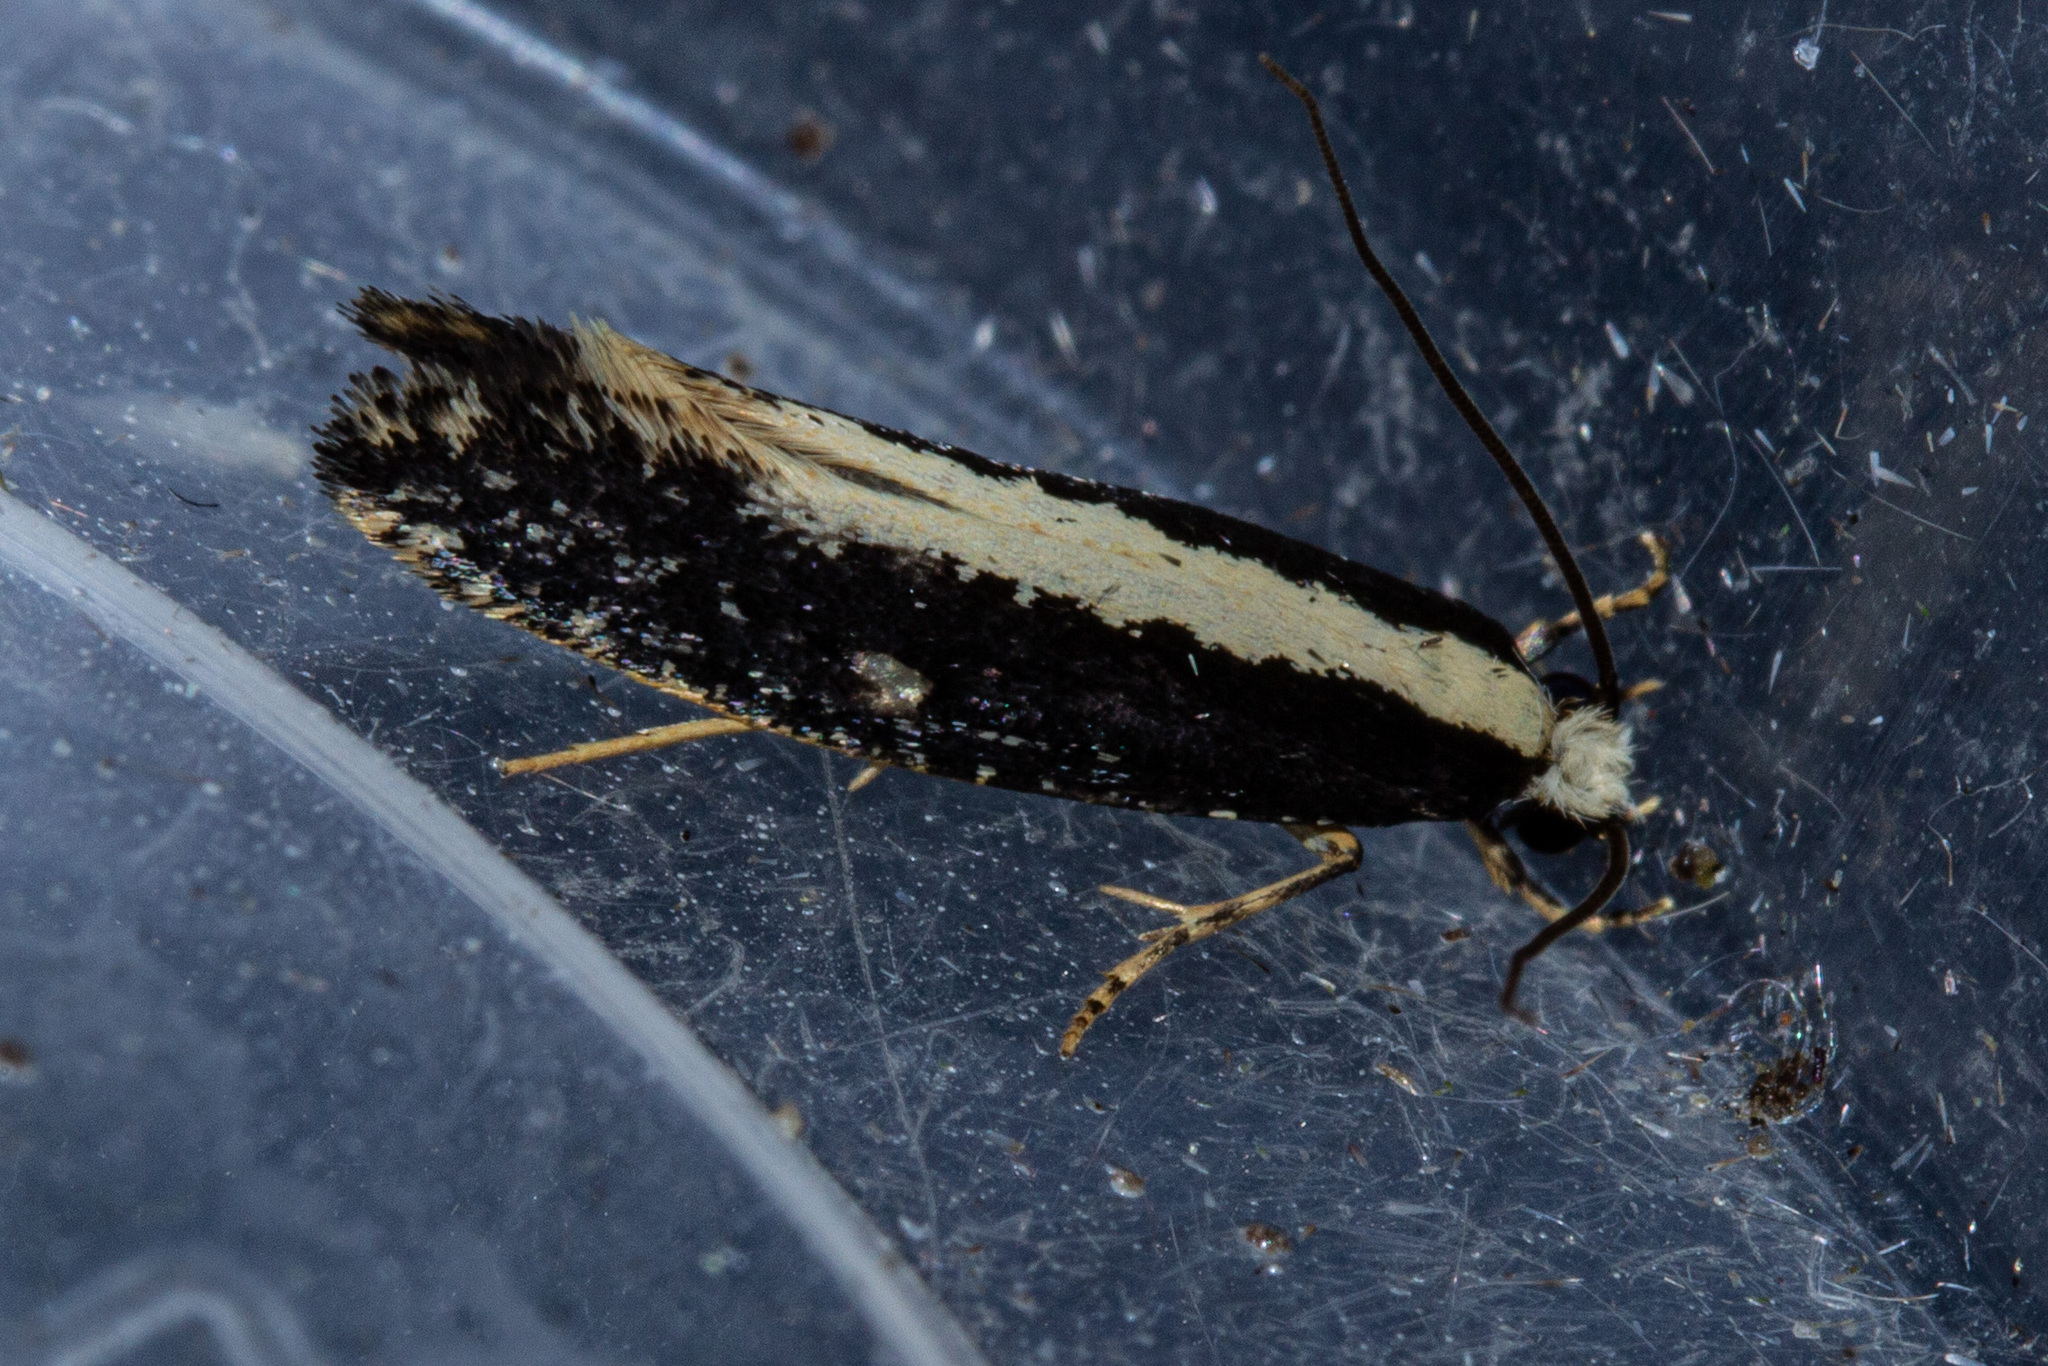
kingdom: Animalia
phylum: Arthropoda
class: Insecta
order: Lepidoptera
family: Tineidae
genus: Monopis
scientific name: Monopis ethelella
